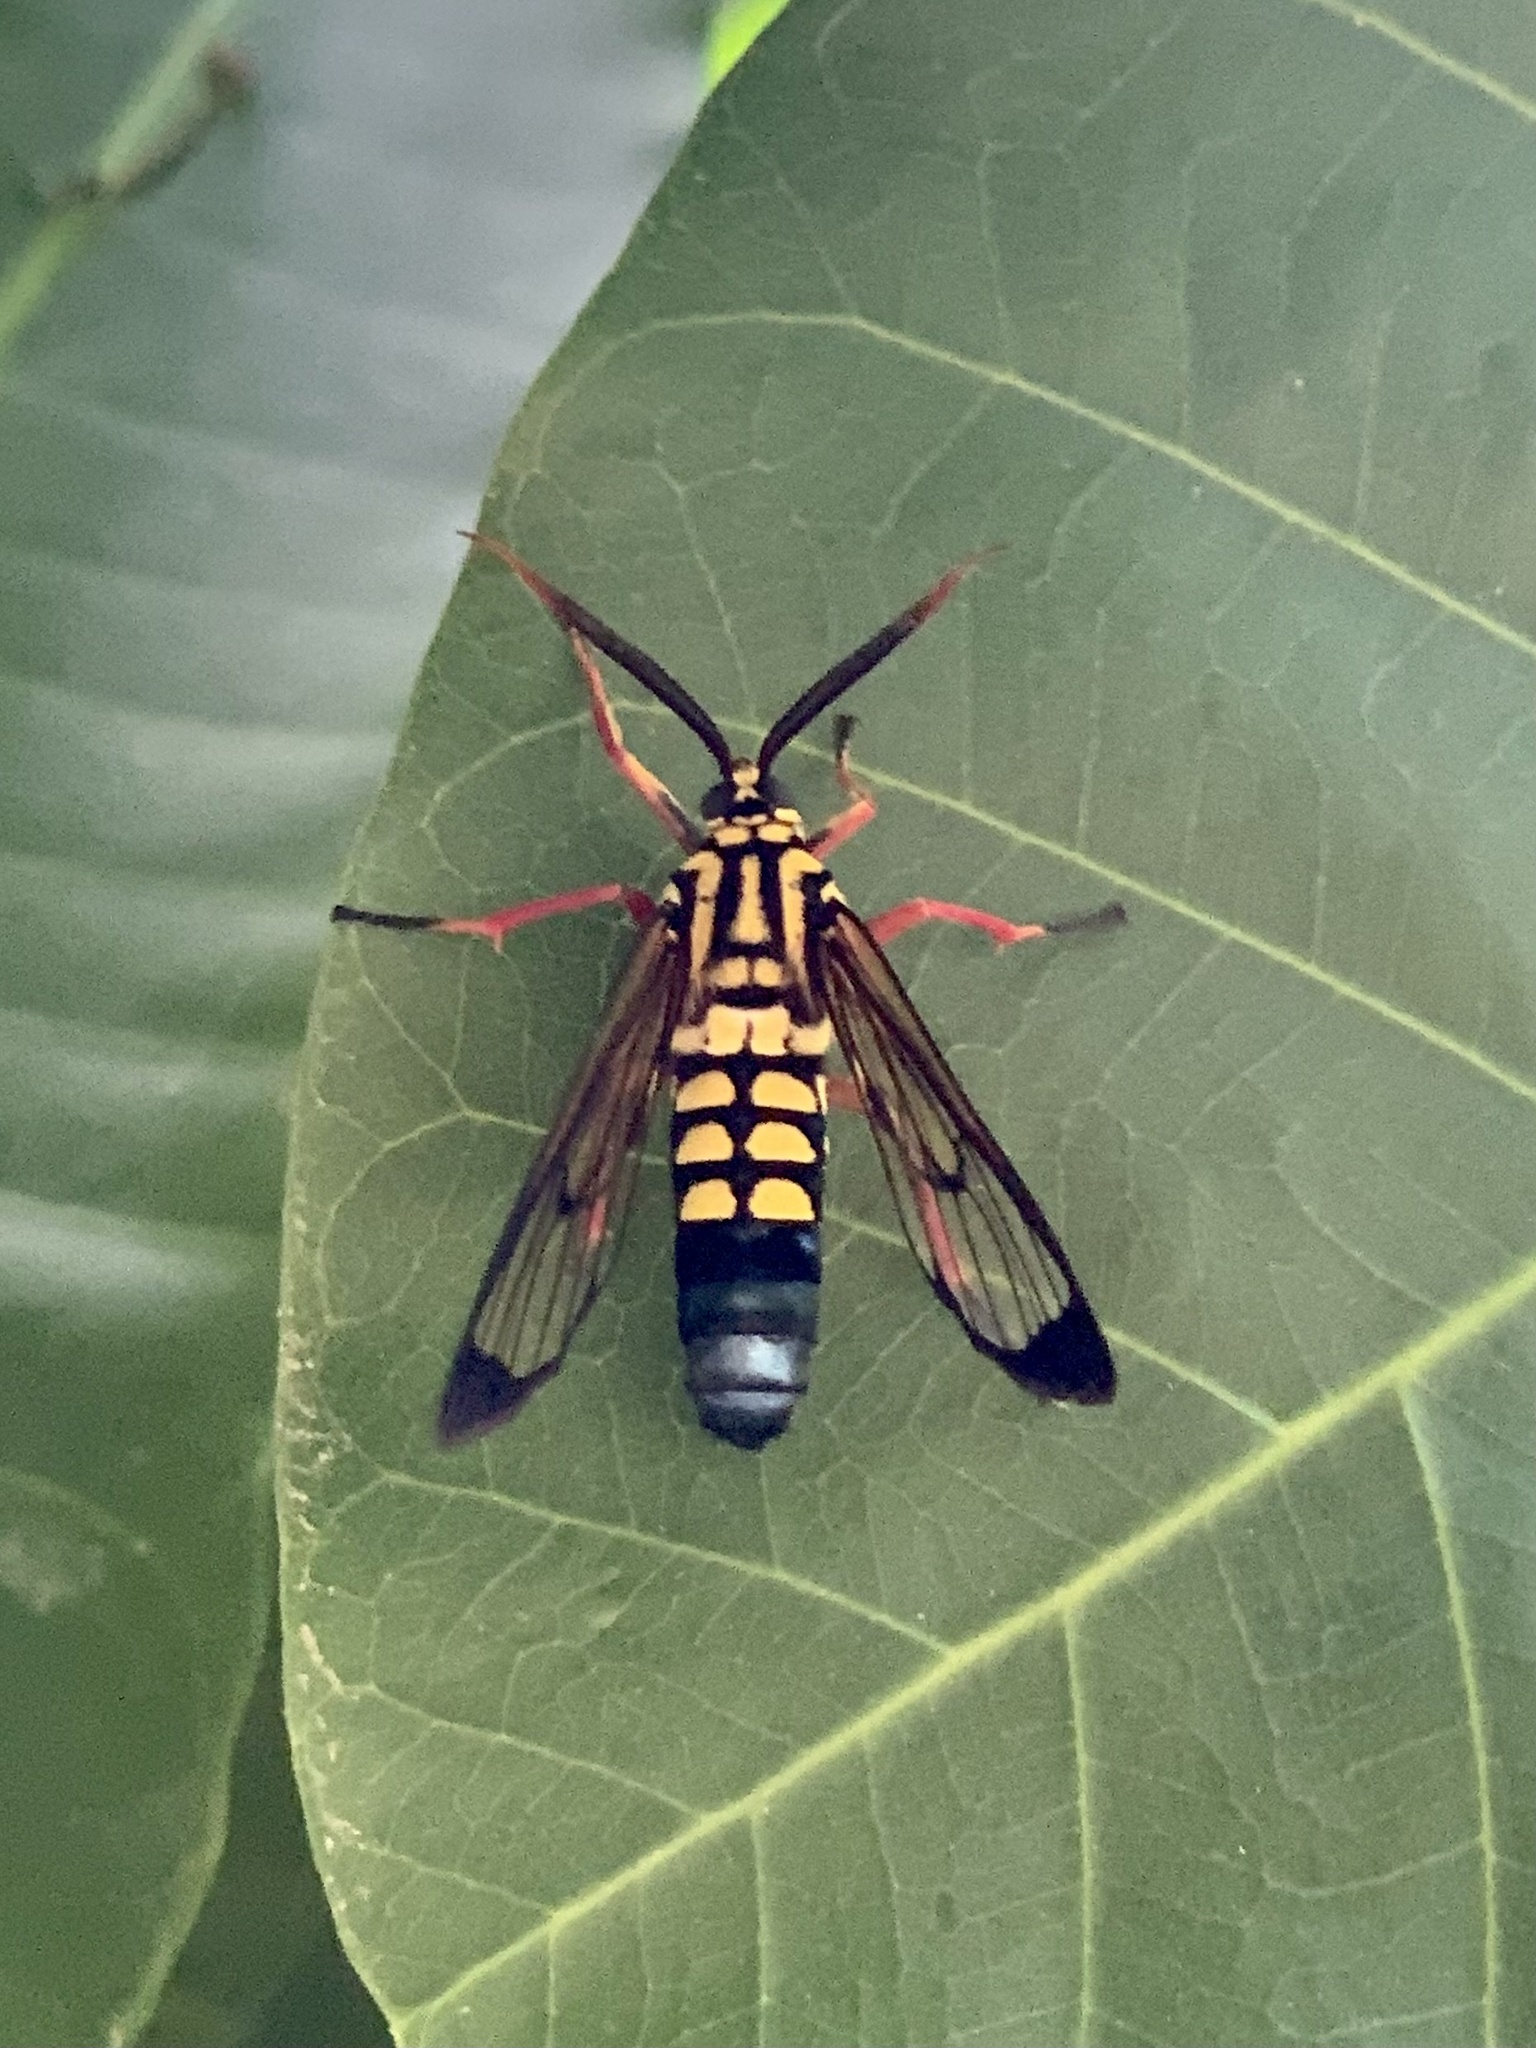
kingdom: Animalia
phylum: Arthropoda
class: Insecta
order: Lepidoptera
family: Erebidae
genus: Isanthrene
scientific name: Isanthrene crabroniformis
